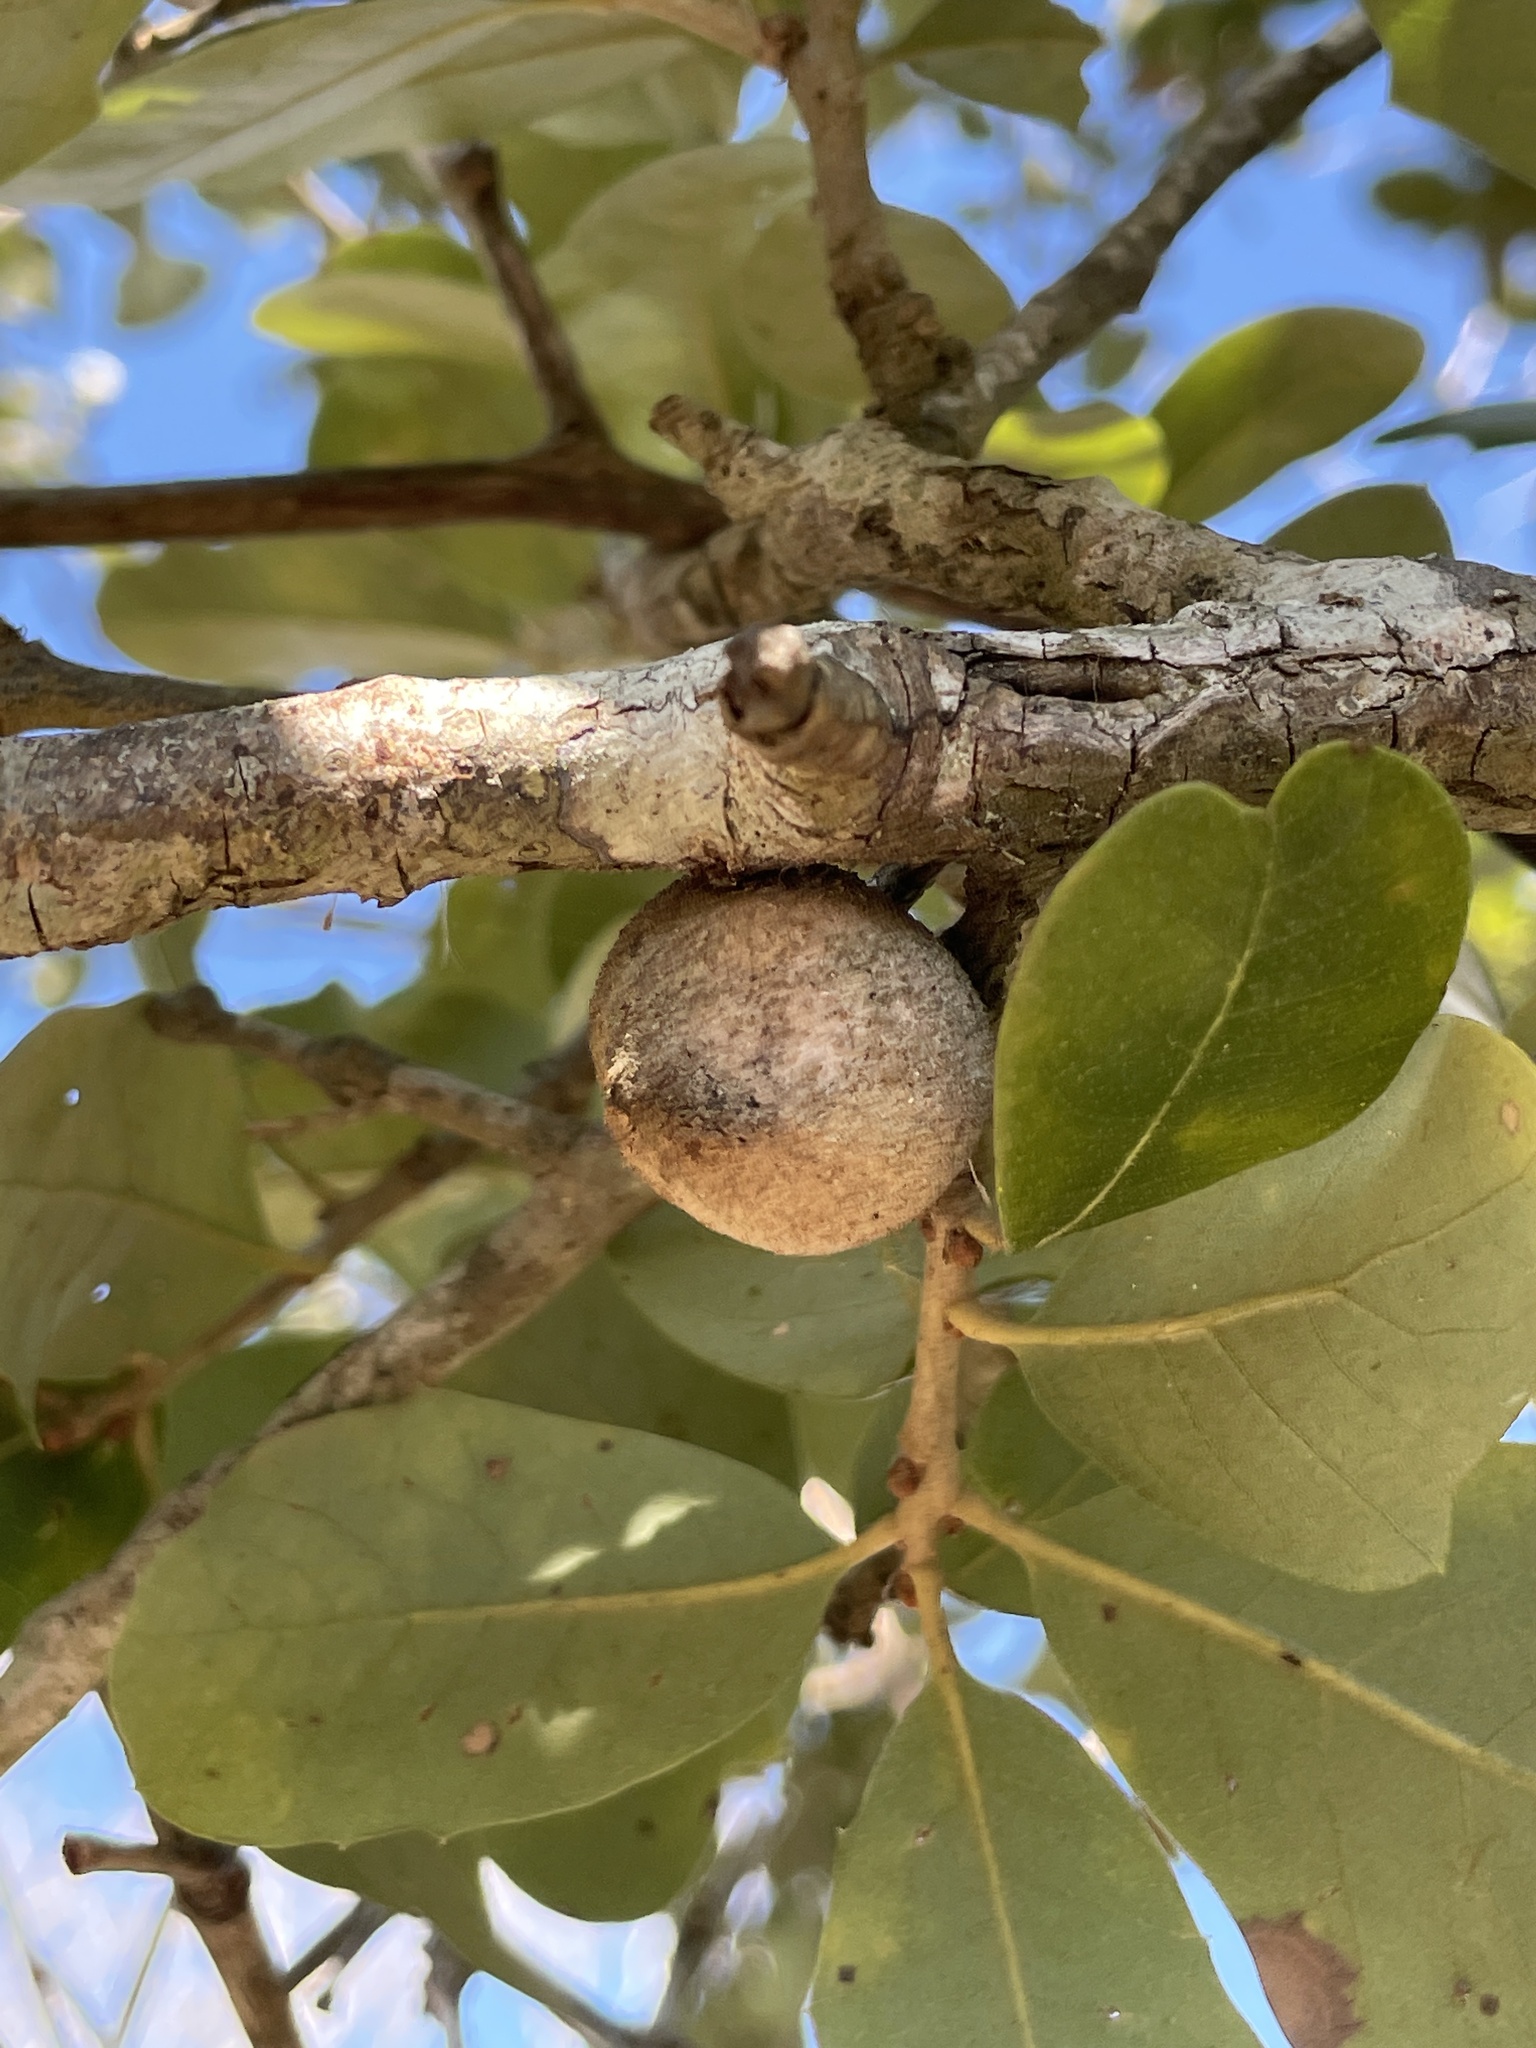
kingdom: Animalia
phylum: Arthropoda
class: Insecta
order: Hymenoptera
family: Cynipidae
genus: Disholcaspis
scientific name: Disholcaspis
